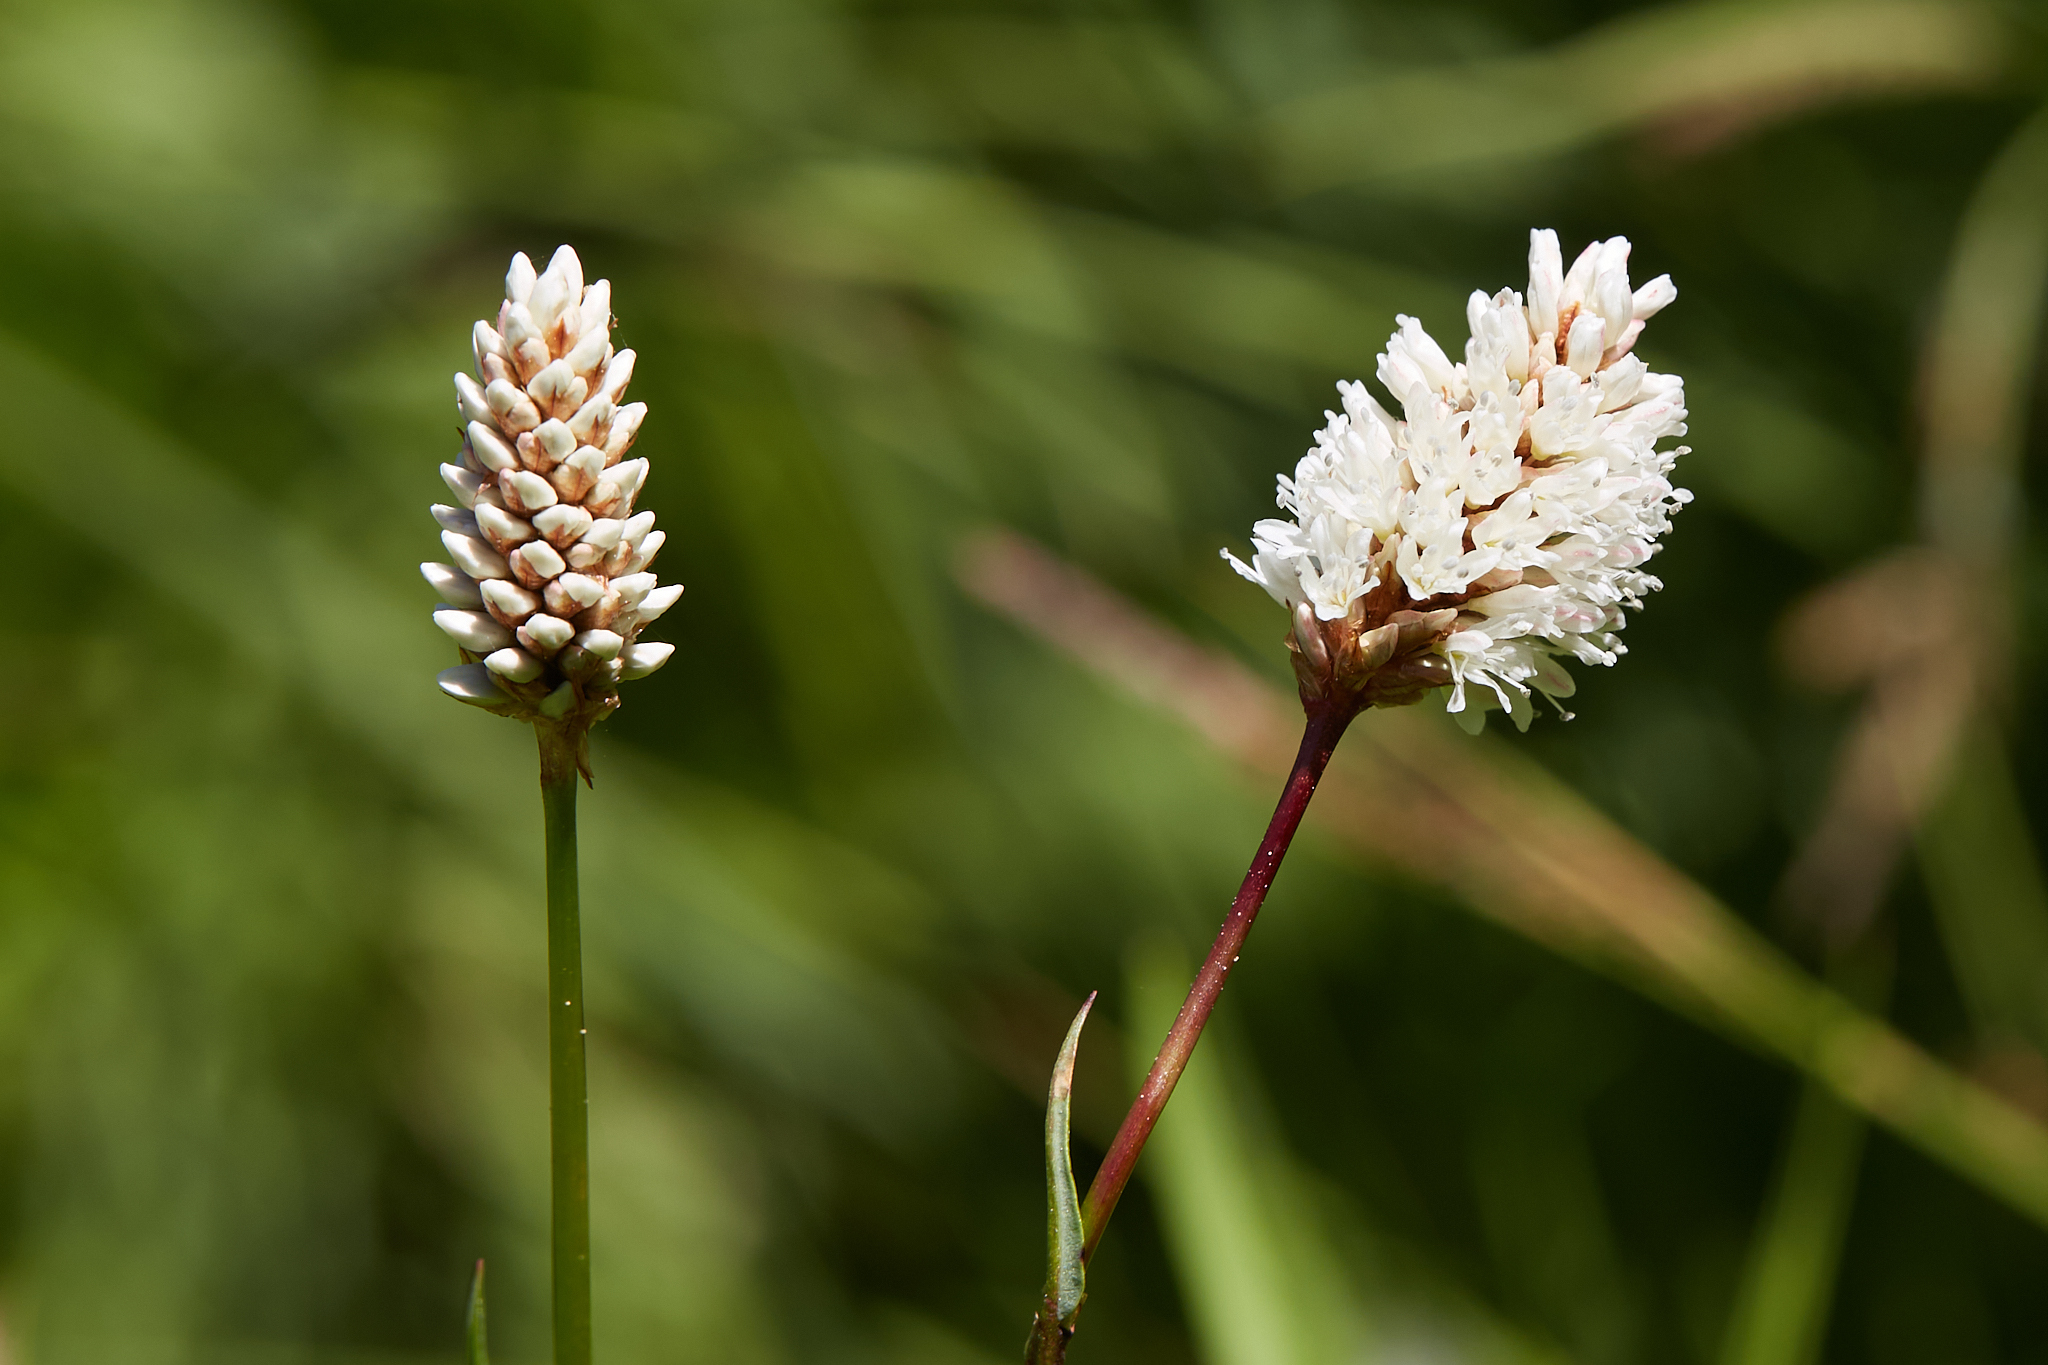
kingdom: Plantae
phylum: Tracheophyta
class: Magnoliopsida
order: Caryophyllales
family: Polygonaceae
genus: Bistorta
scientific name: Bistorta bistortoides
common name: American bistort
